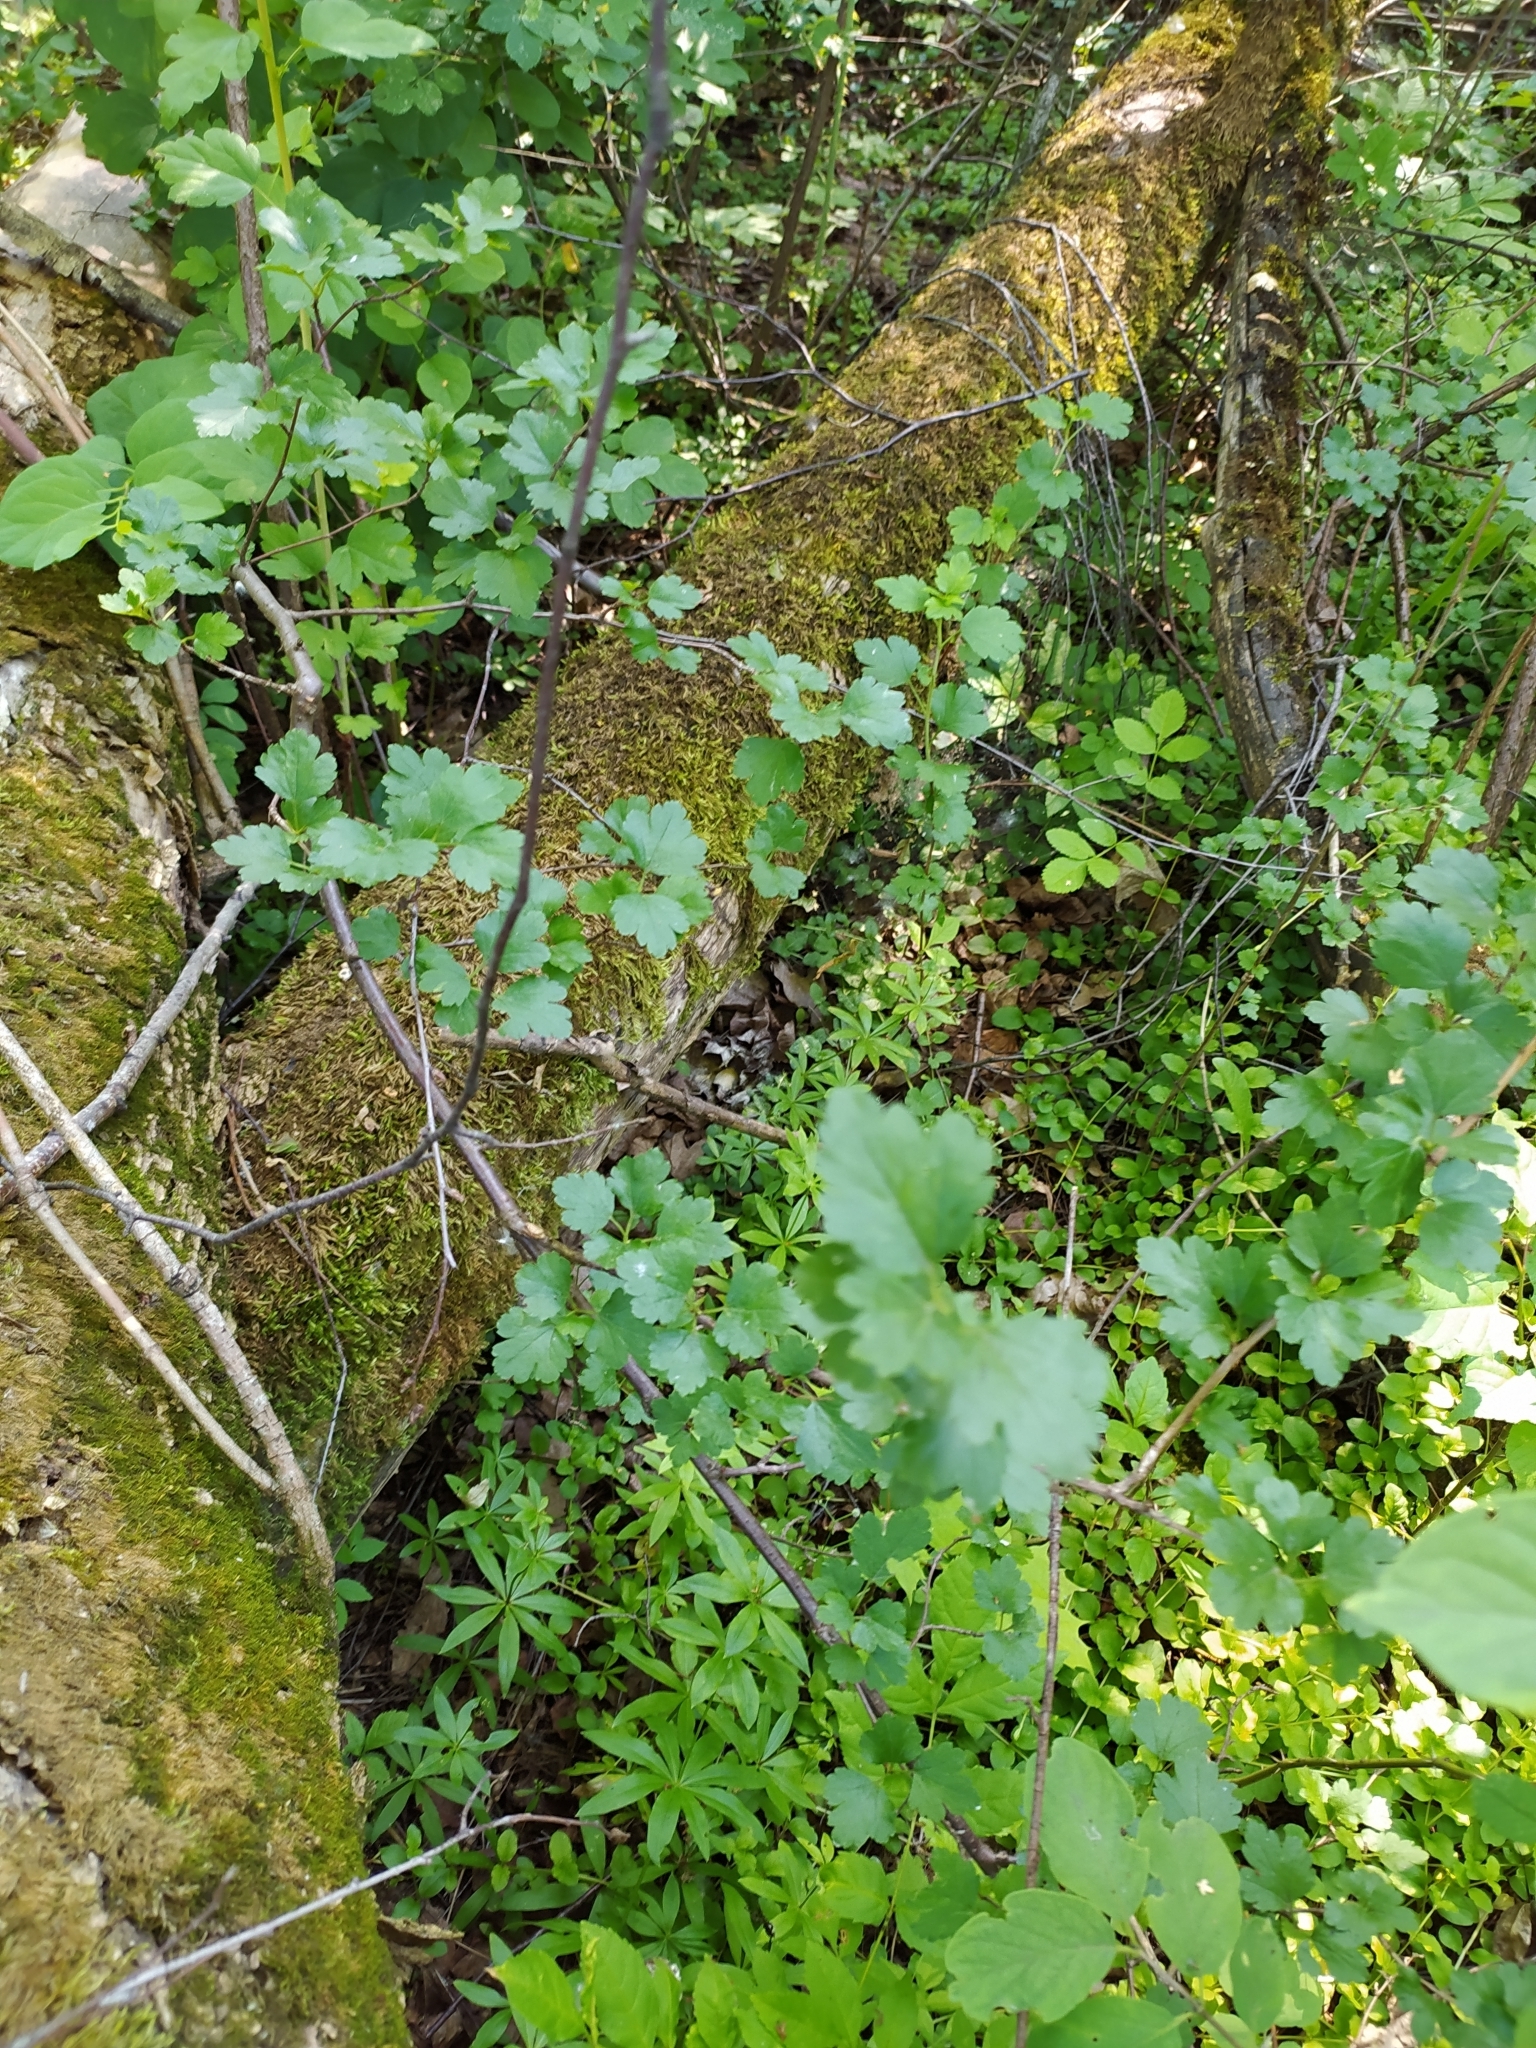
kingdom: Plantae
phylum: Tracheophyta
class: Magnoliopsida
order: Saxifragales
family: Grossulariaceae
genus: Ribes
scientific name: Ribes alpinum
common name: Alpine currant
